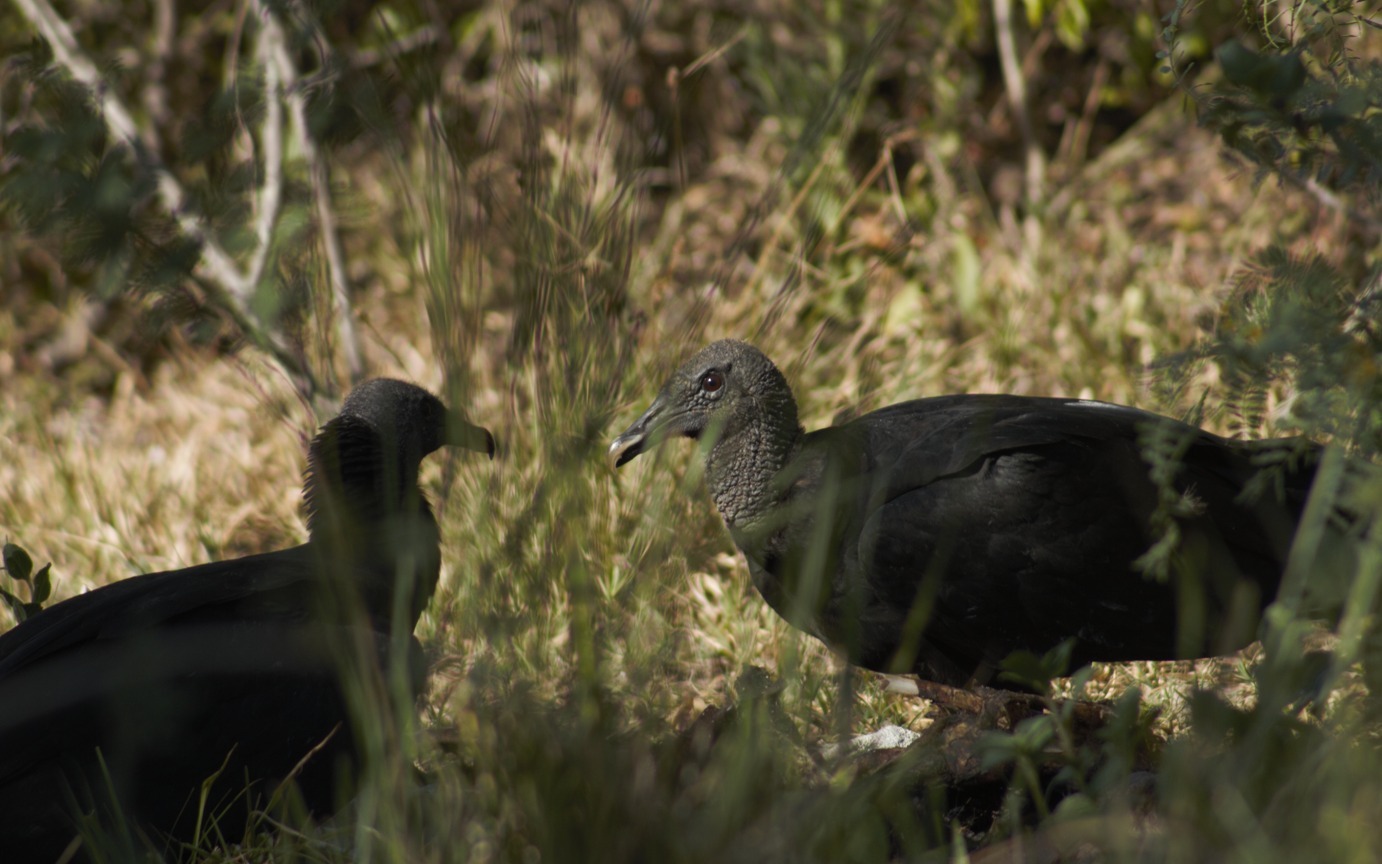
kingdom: Animalia
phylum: Chordata
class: Aves
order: Accipitriformes
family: Cathartidae
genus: Coragyps
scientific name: Coragyps atratus
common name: Black vulture
